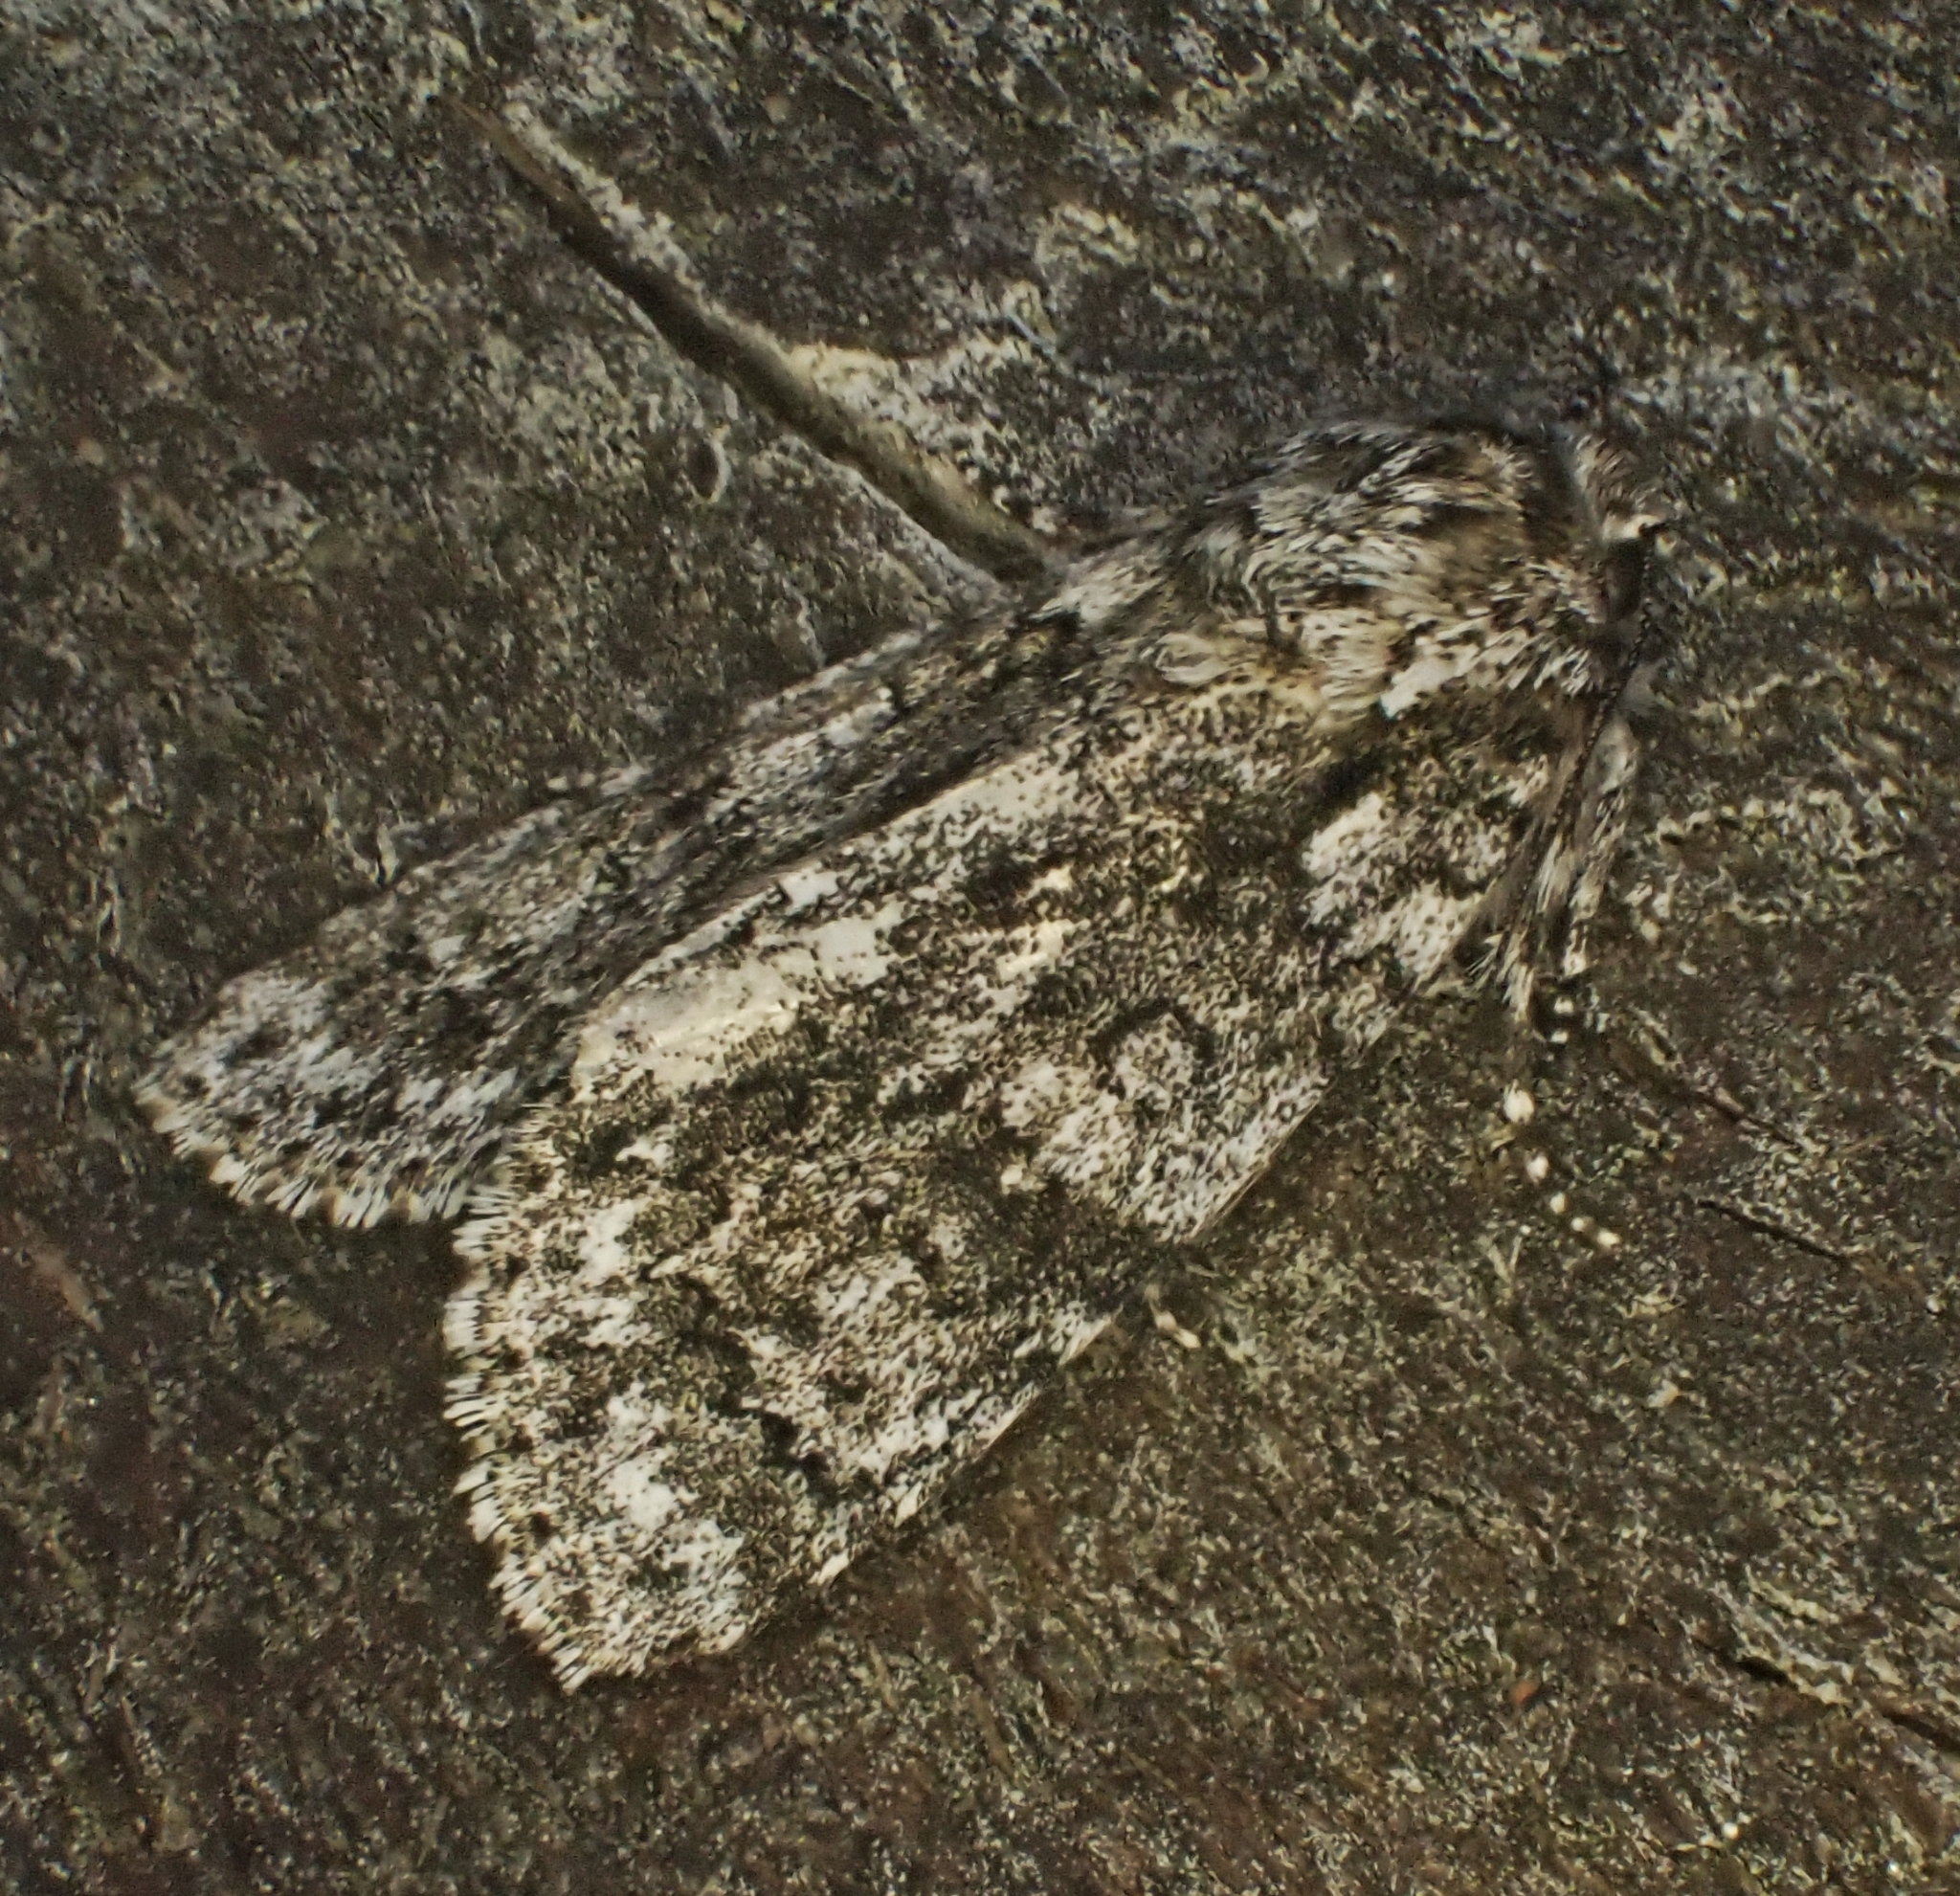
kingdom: Animalia
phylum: Arthropoda
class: Insecta
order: Lepidoptera
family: Noctuidae
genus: Acronicta
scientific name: Acronicta rumicis
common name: Knot grass
